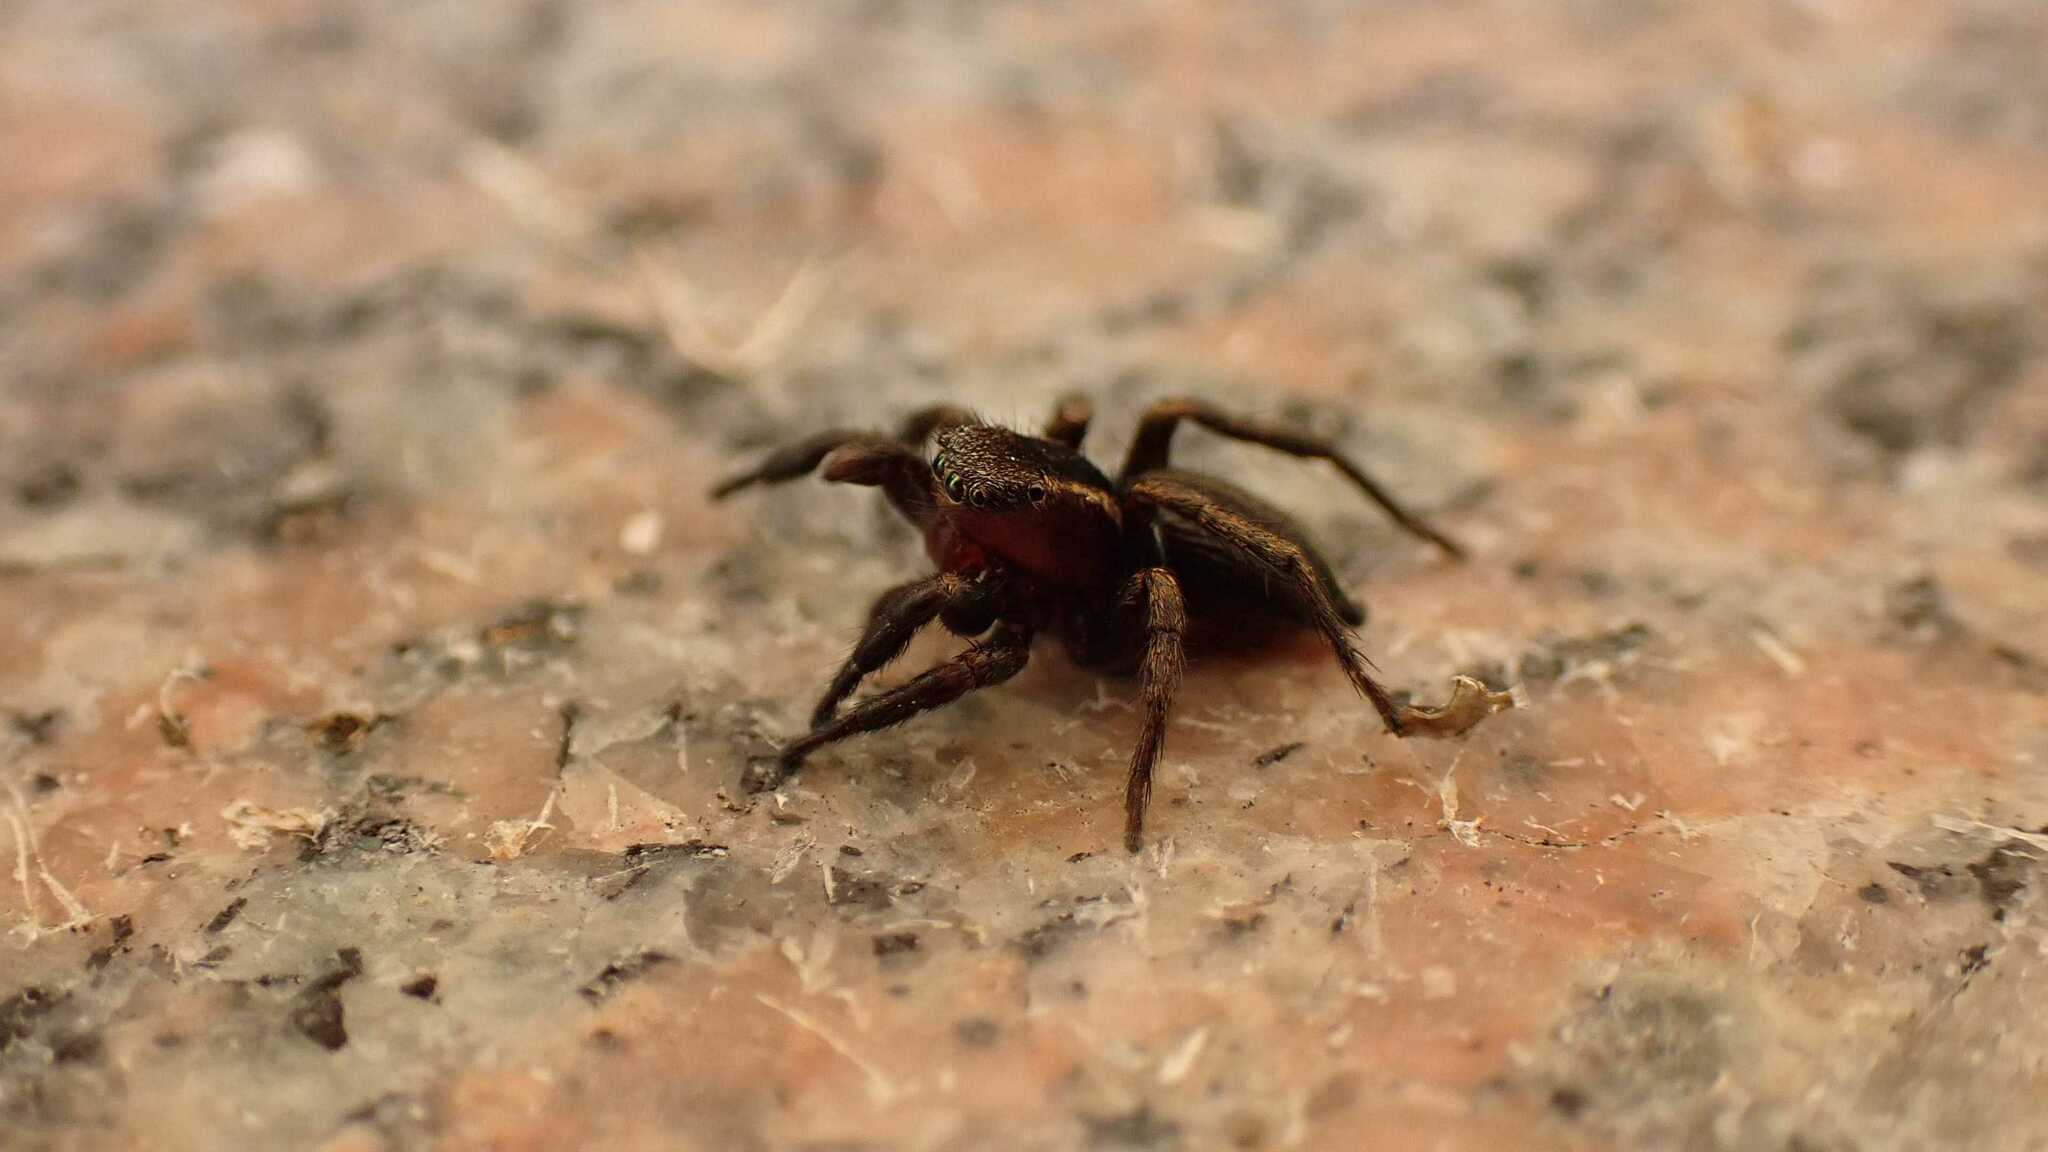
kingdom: Animalia
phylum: Arthropoda
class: Arachnida
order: Araneae
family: Salticidae
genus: Phlegra
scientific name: Phlegra fasciata
